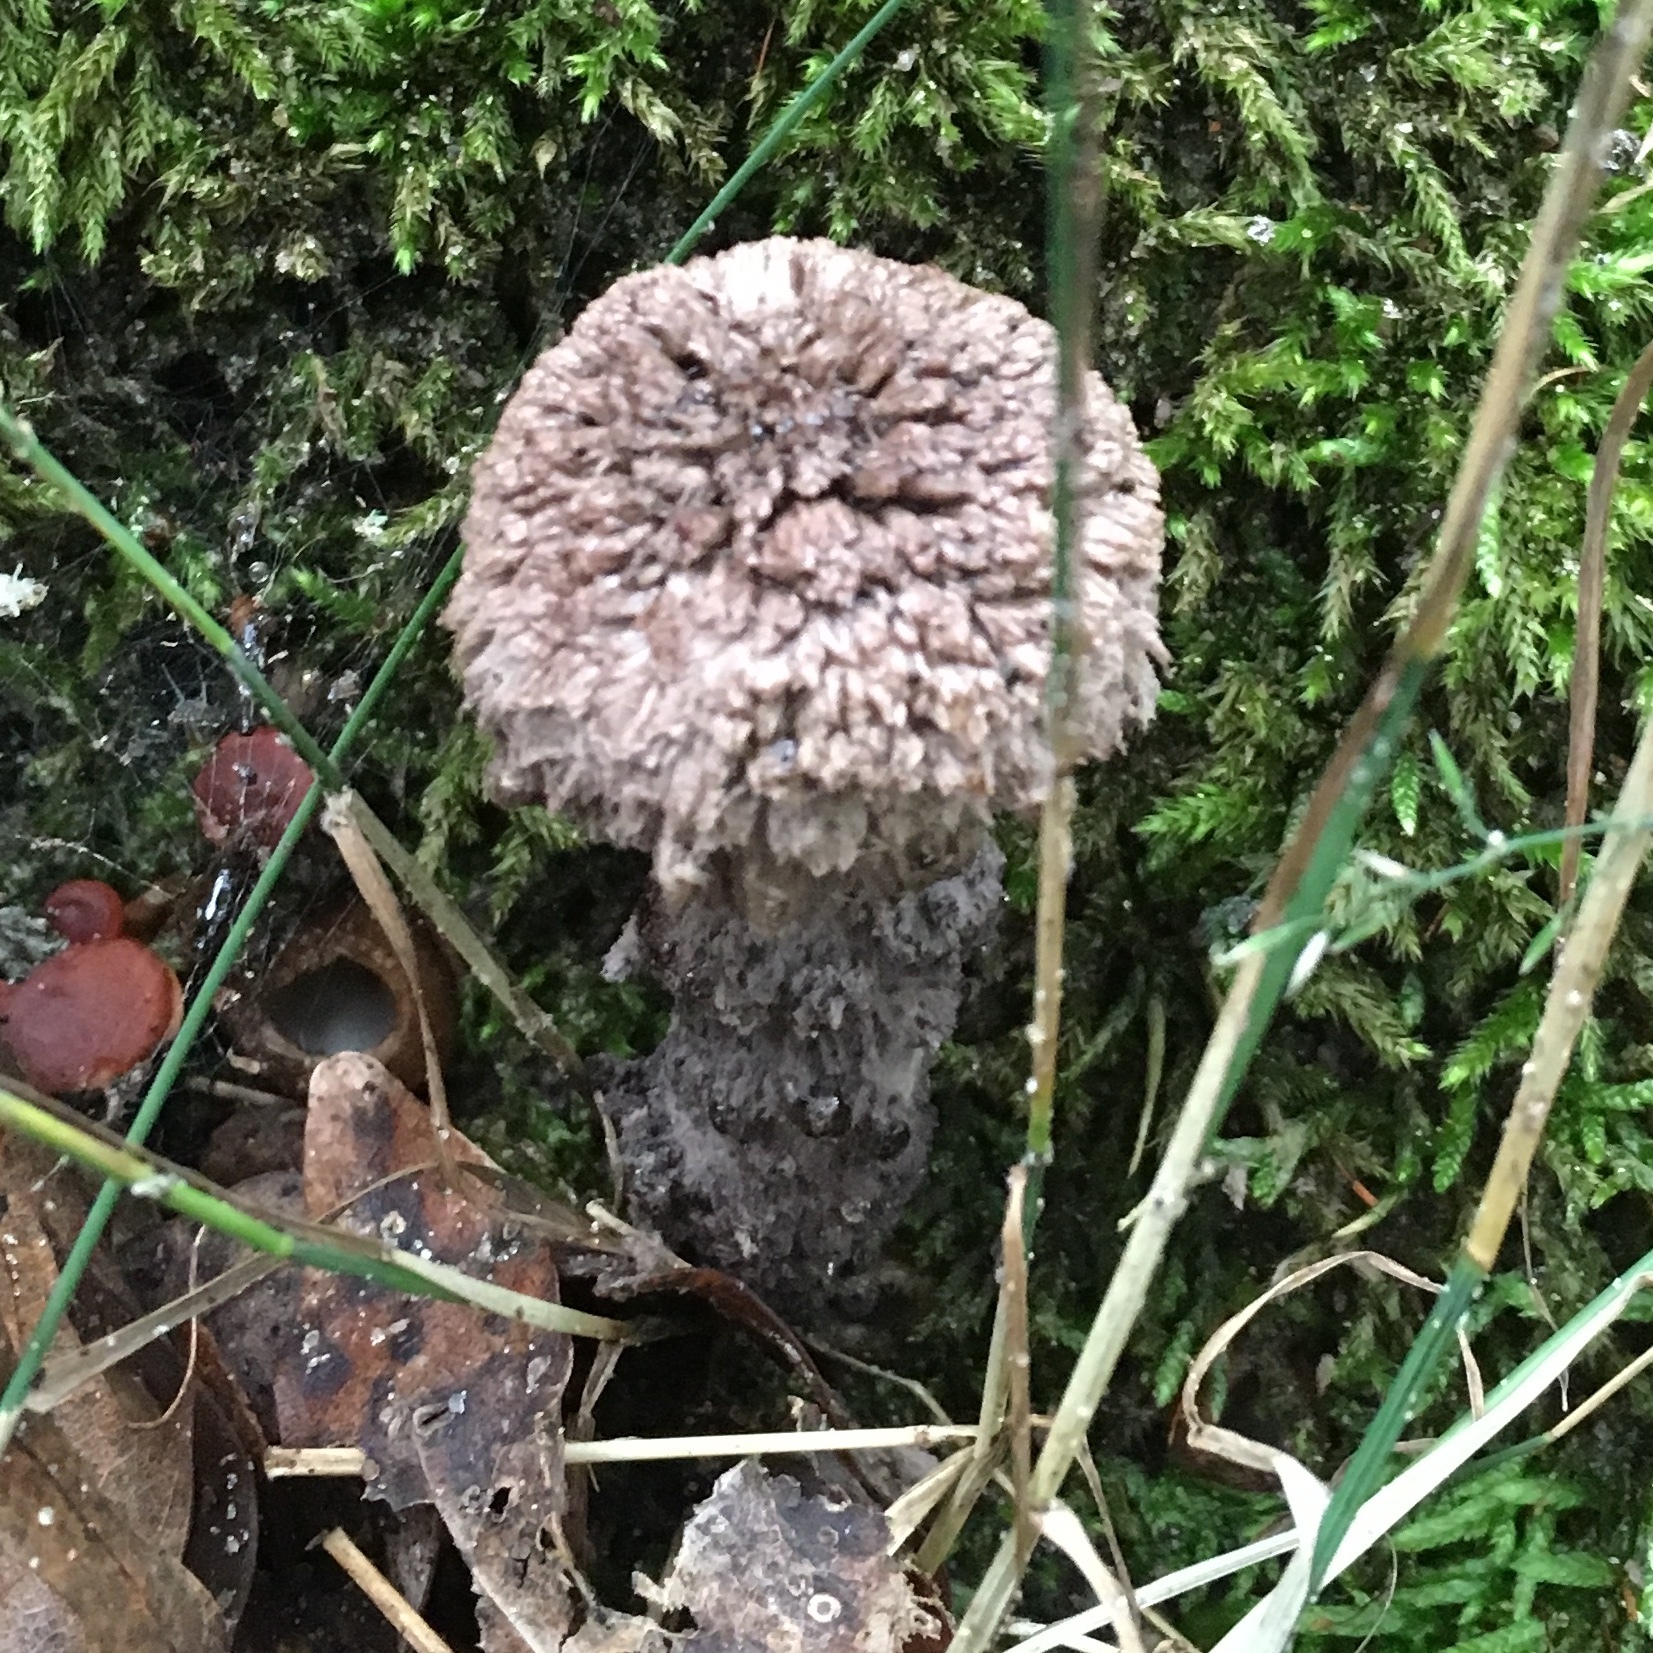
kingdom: Fungi
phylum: Basidiomycota
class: Agaricomycetes
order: Boletales
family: Boletaceae
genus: Strobilomyces
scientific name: Strobilomyces strobilaceus
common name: Old man of the woods
